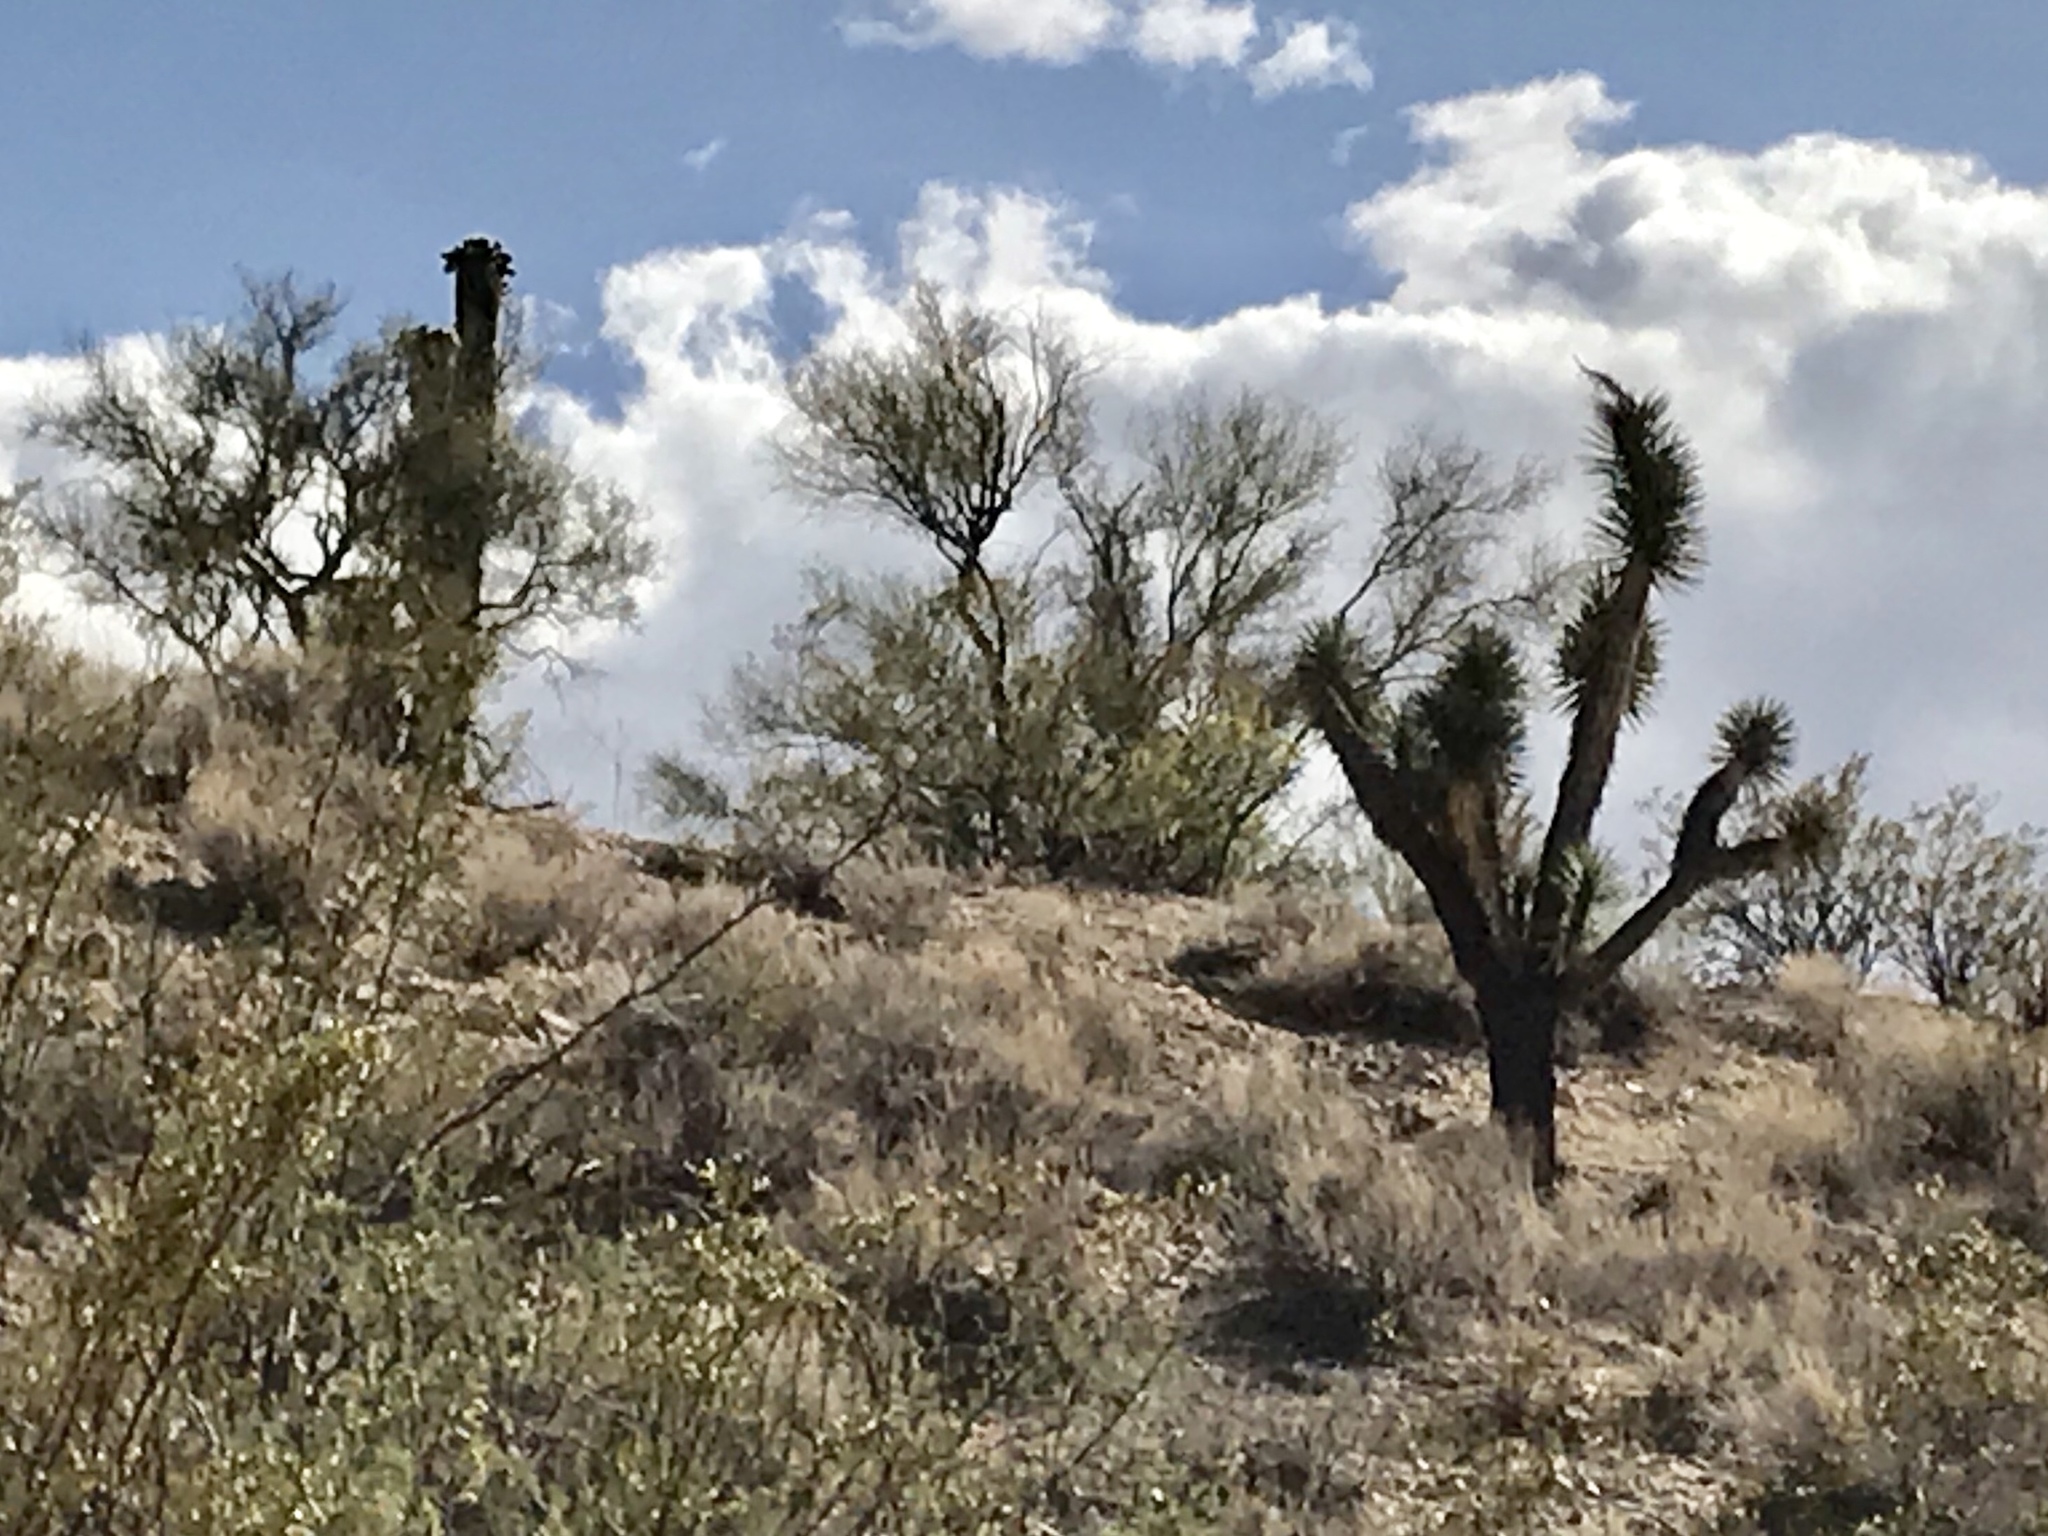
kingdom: Plantae
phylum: Tracheophyta
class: Liliopsida
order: Asparagales
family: Asparagaceae
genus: Yucca
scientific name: Yucca brevifolia
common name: Joshua tree
